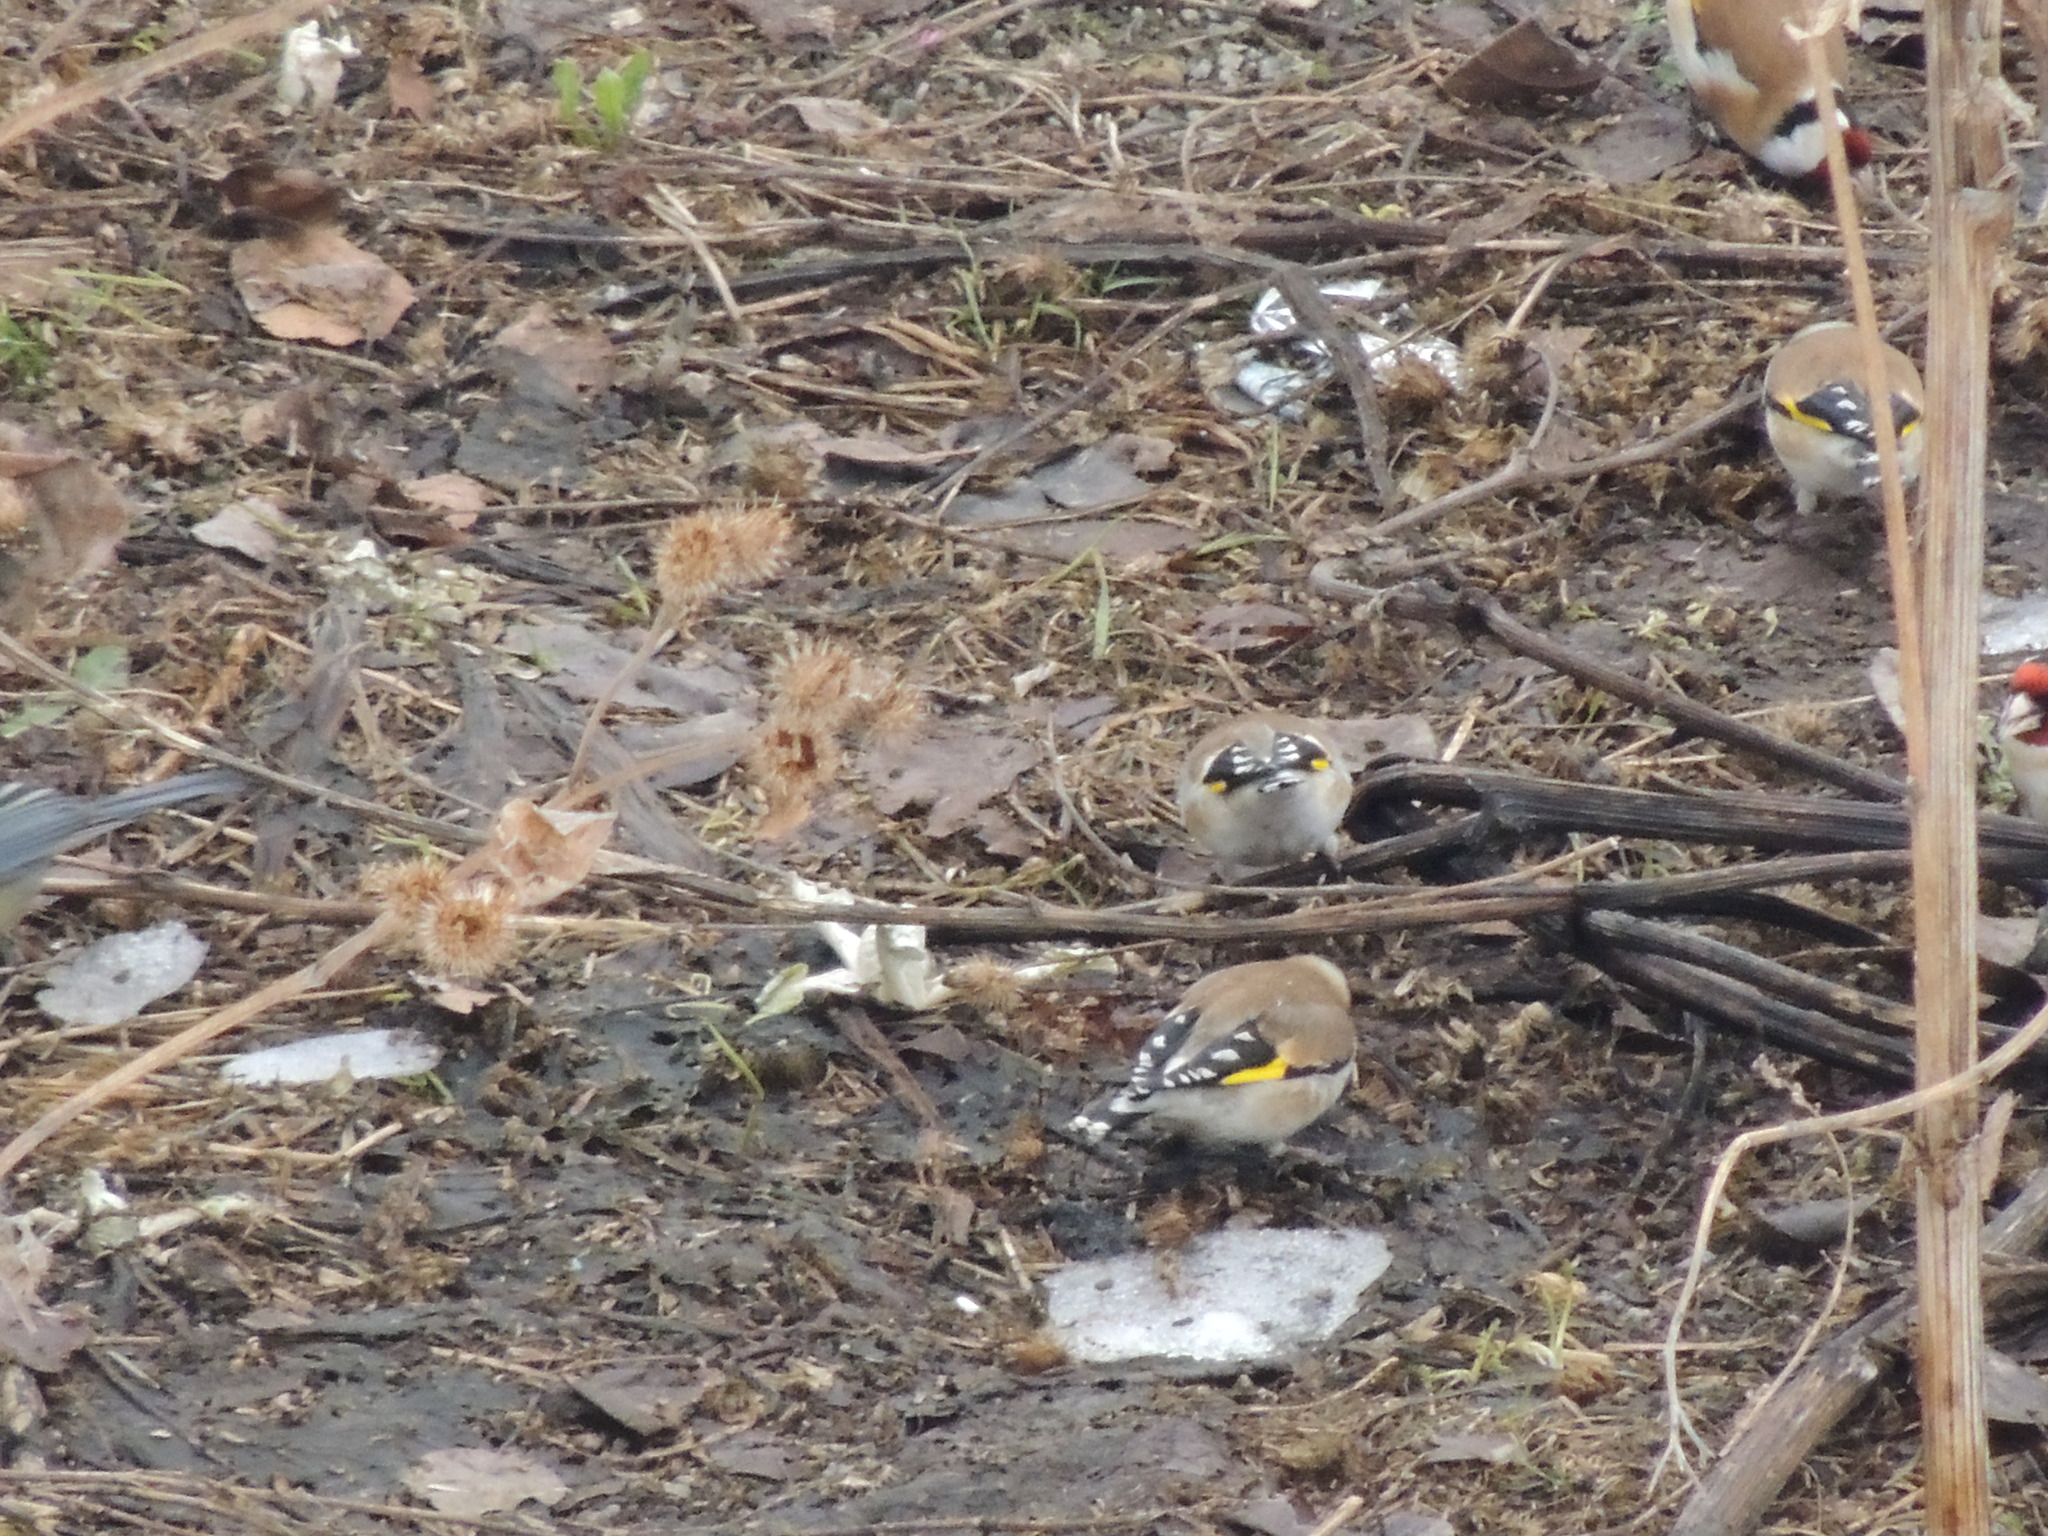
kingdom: Animalia
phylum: Chordata
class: Aves
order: Passeriformes
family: Fringillidae
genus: Carduelis
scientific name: Carduelis carduelis
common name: European goldfinch
